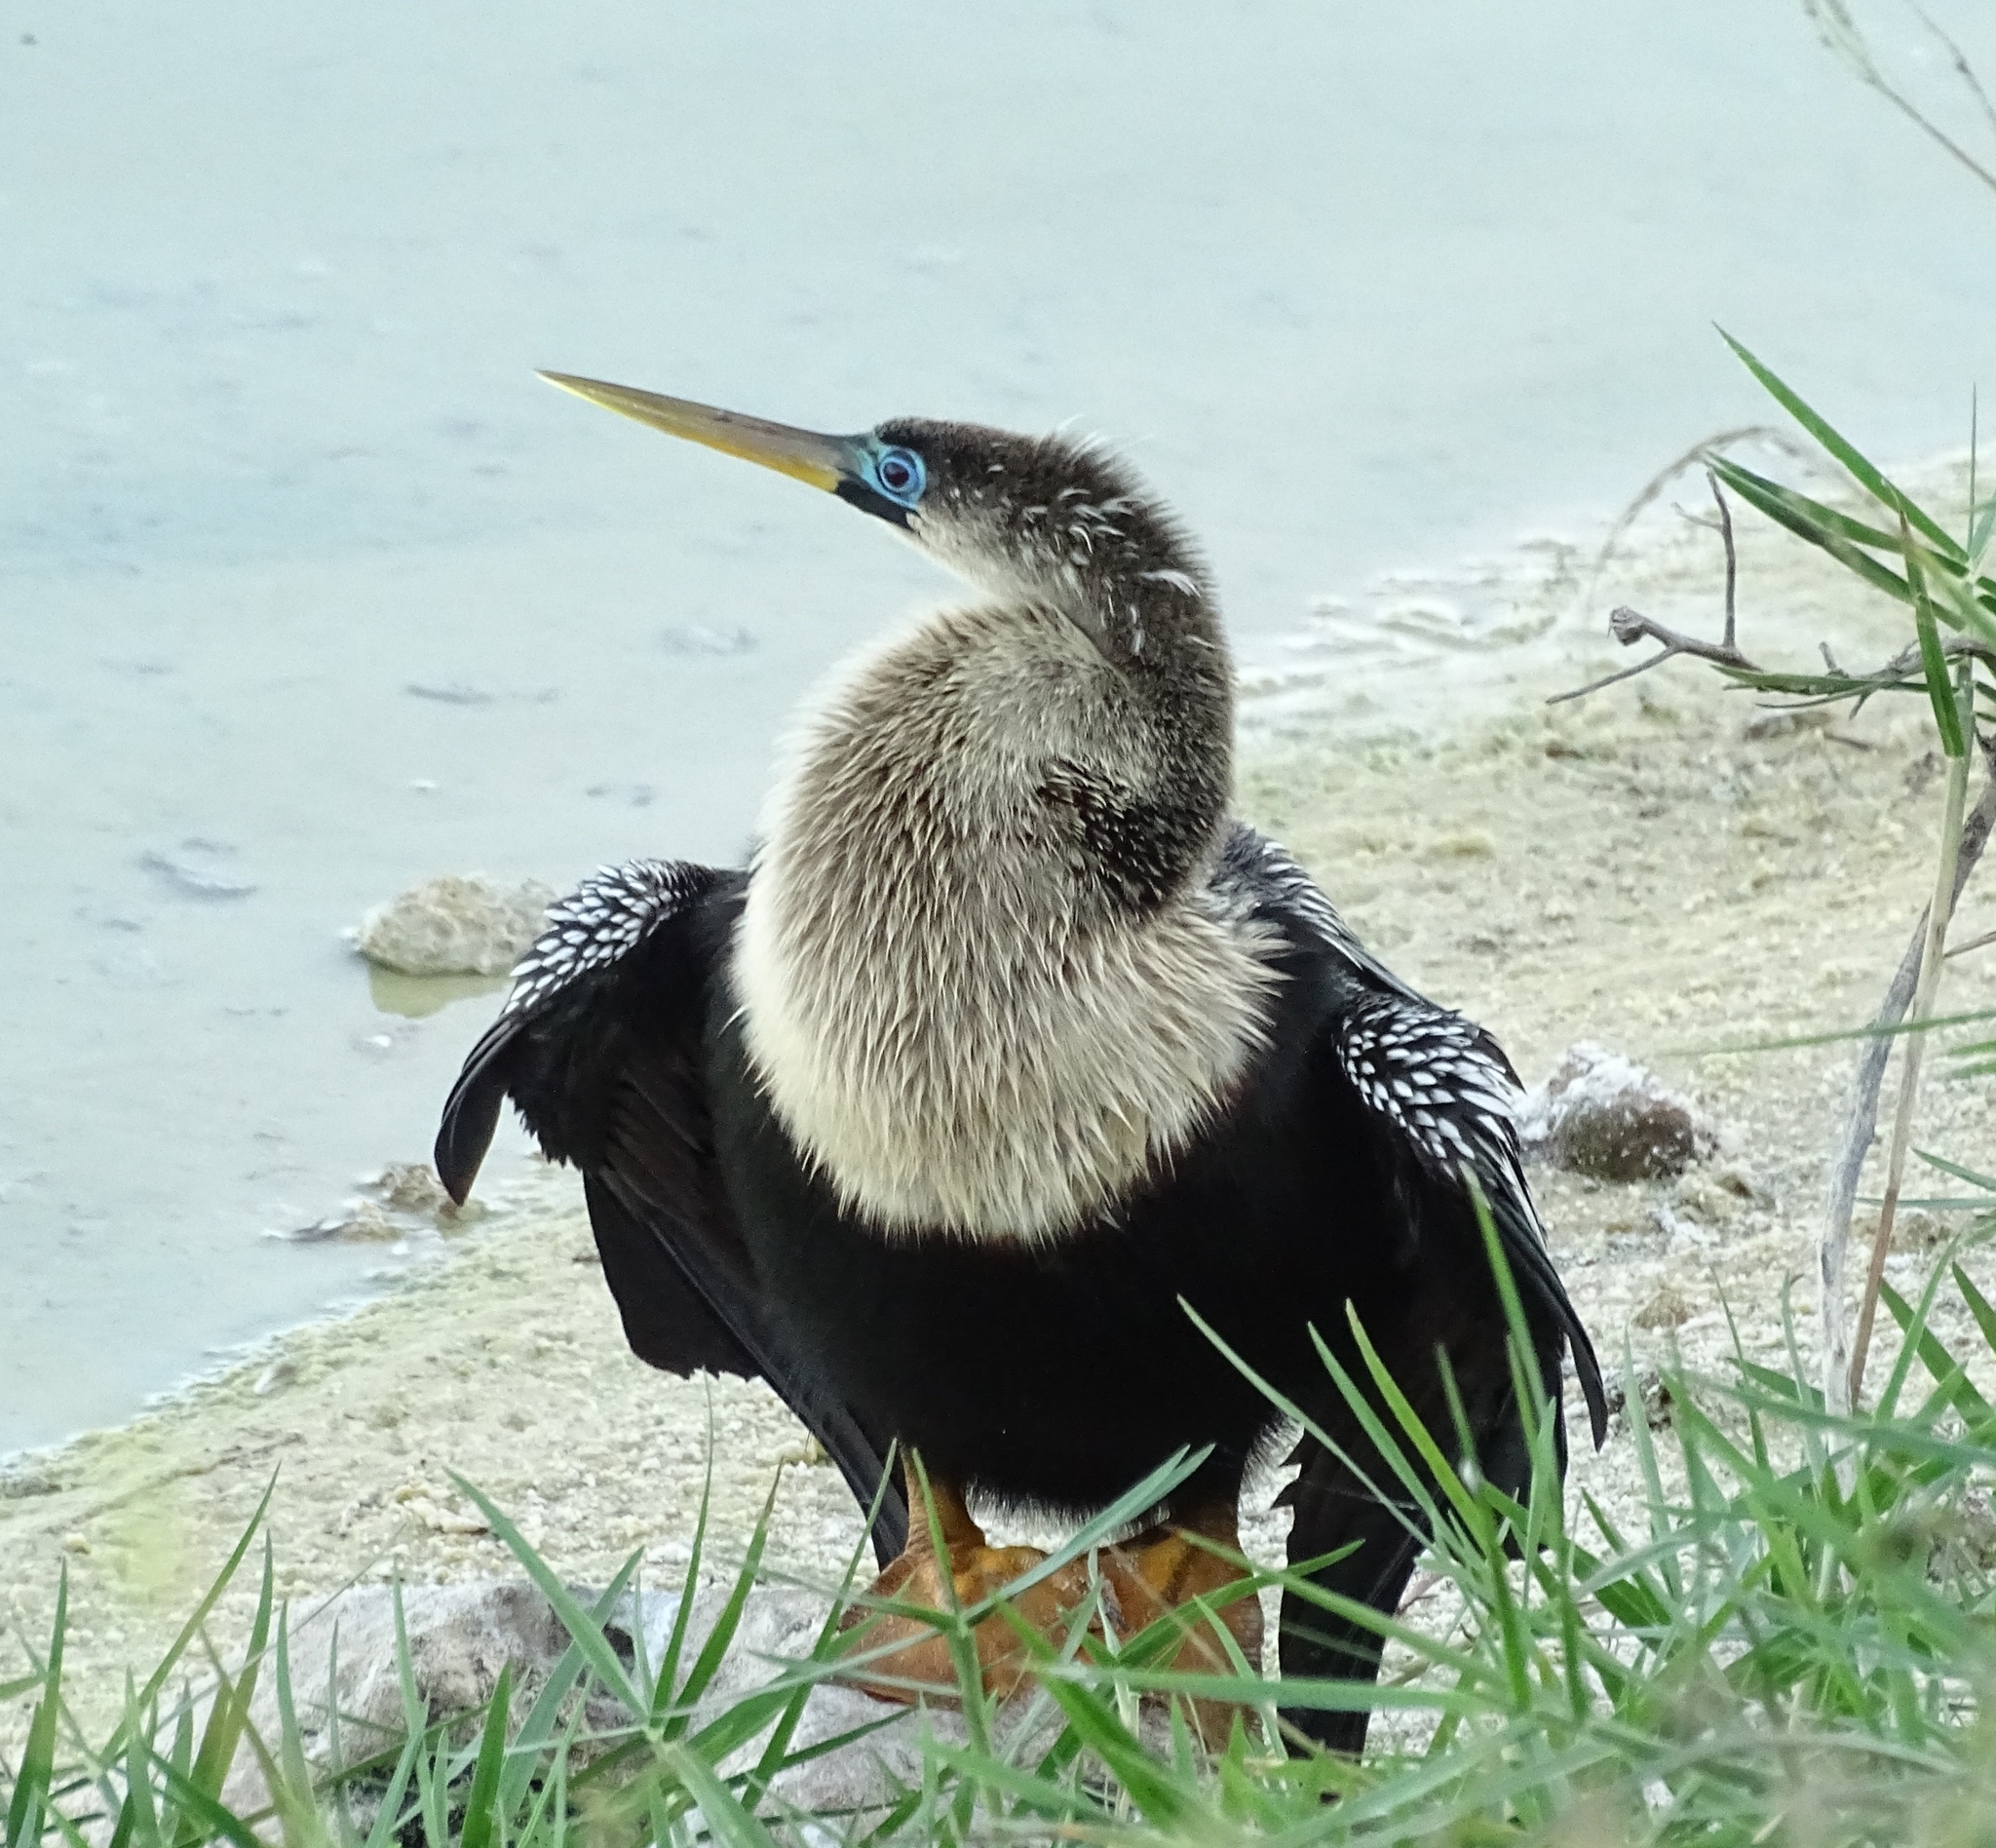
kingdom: Animalia
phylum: Chordata
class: Aves
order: Suliformes
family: Anhingidae
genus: Anhinga
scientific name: Anhinga anhinga
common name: Anhinga
